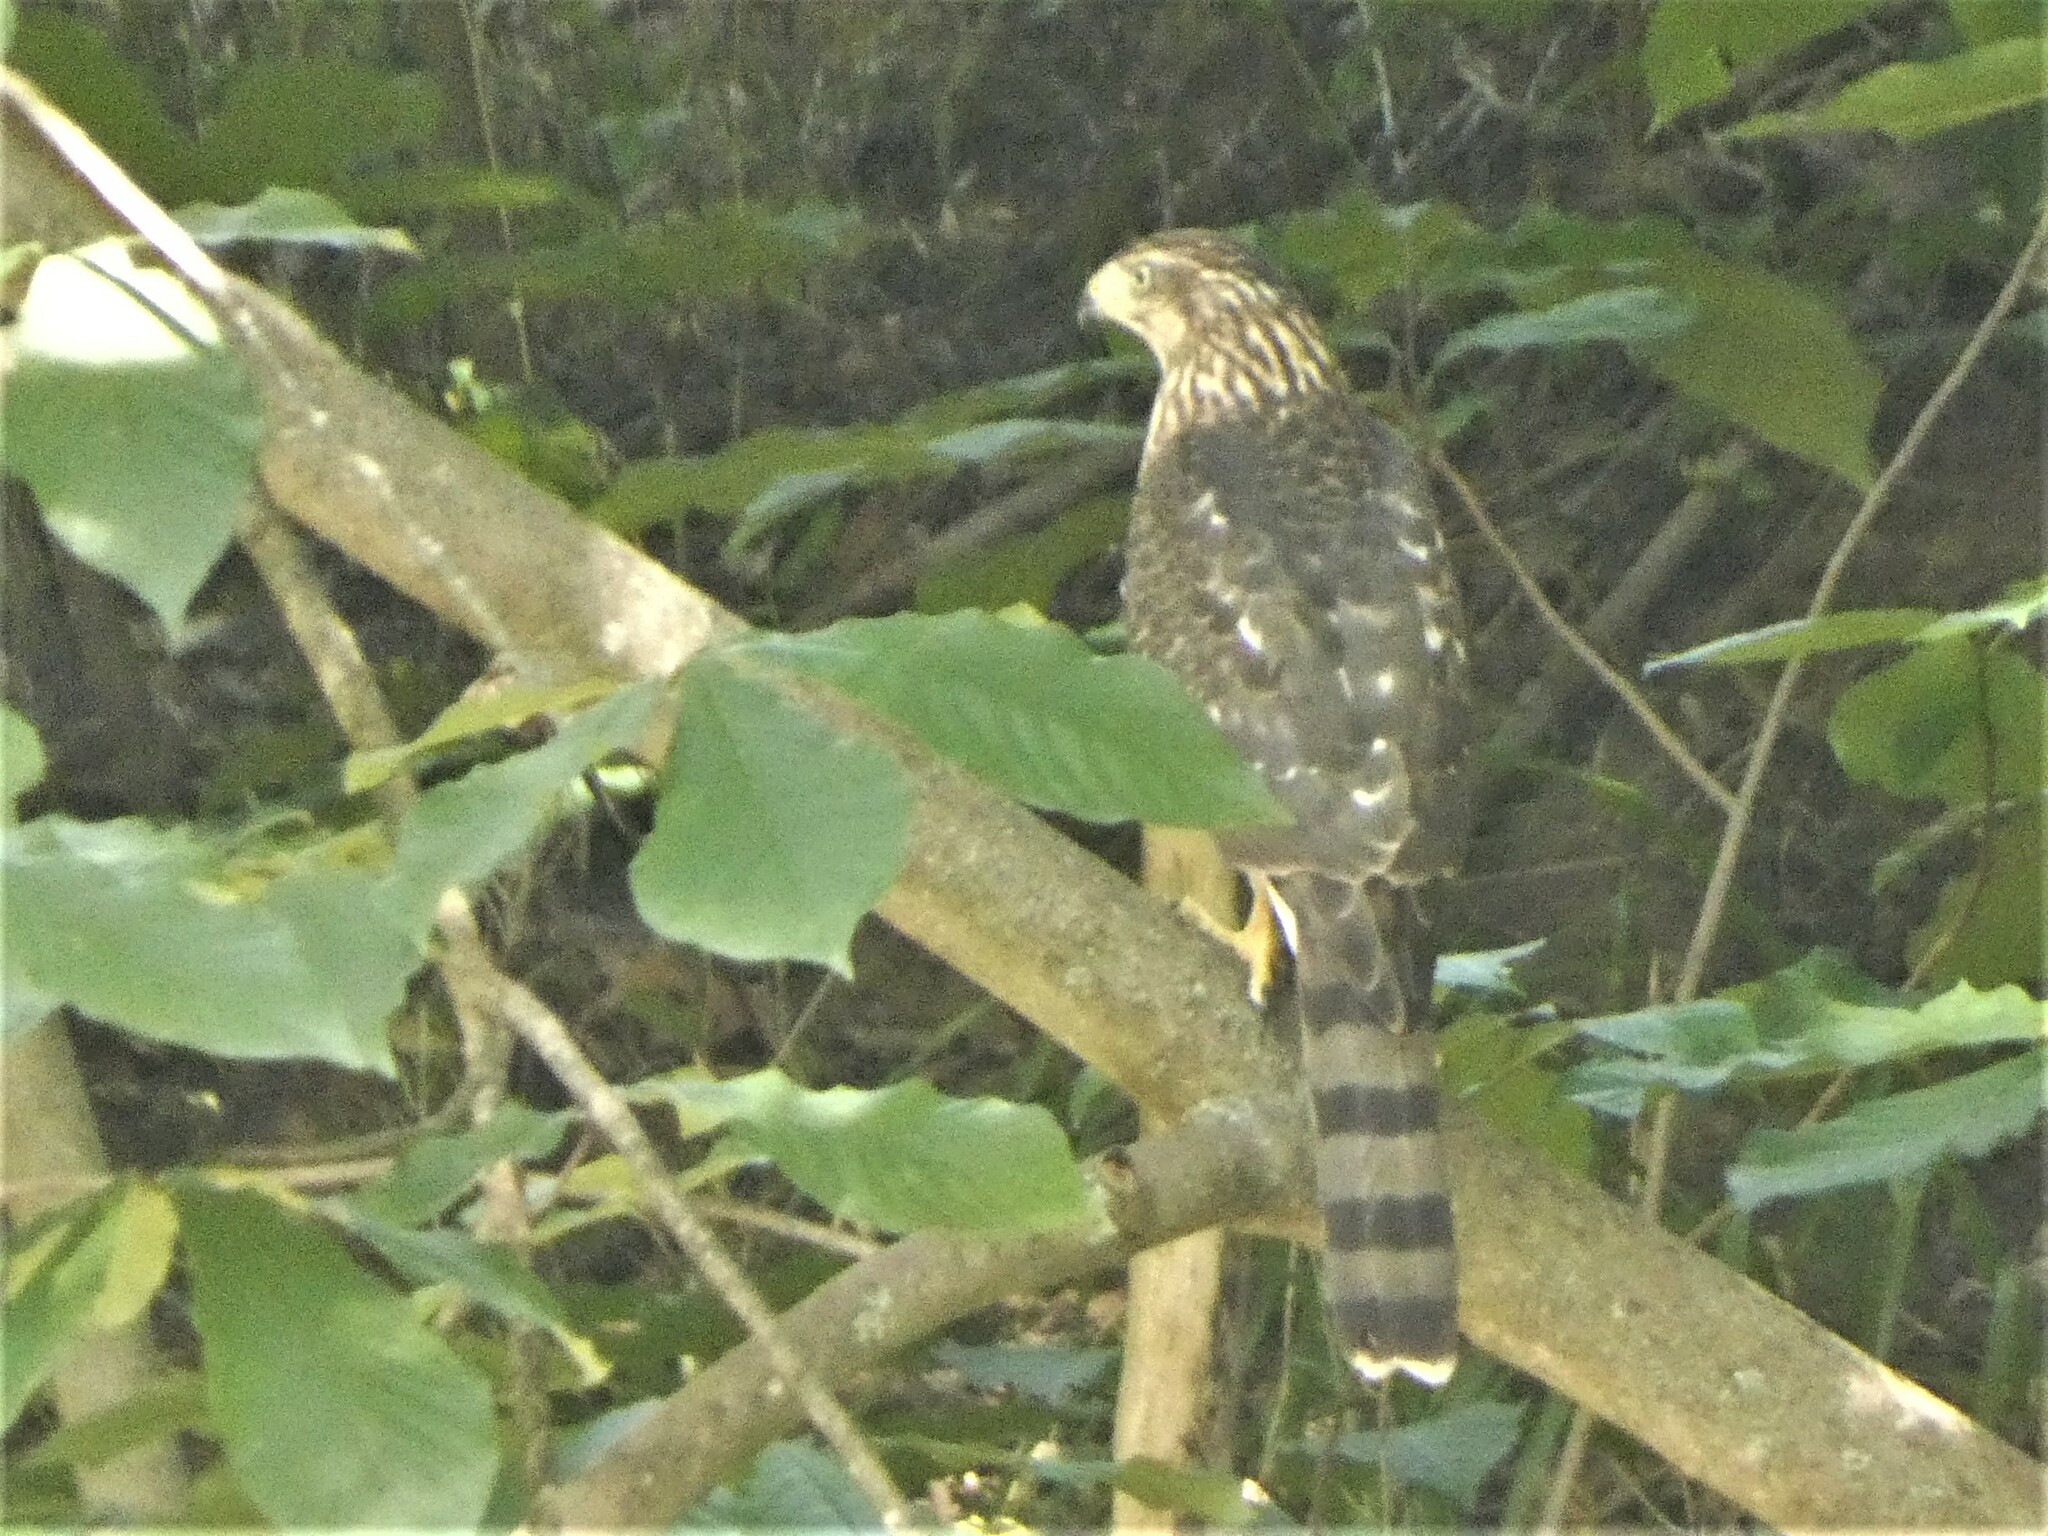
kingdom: Animalia
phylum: Chordata
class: Aves
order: Accipitriformes
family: Accipitridae
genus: Accipiter
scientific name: Accipiter cooperii
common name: Cooper's hawk
